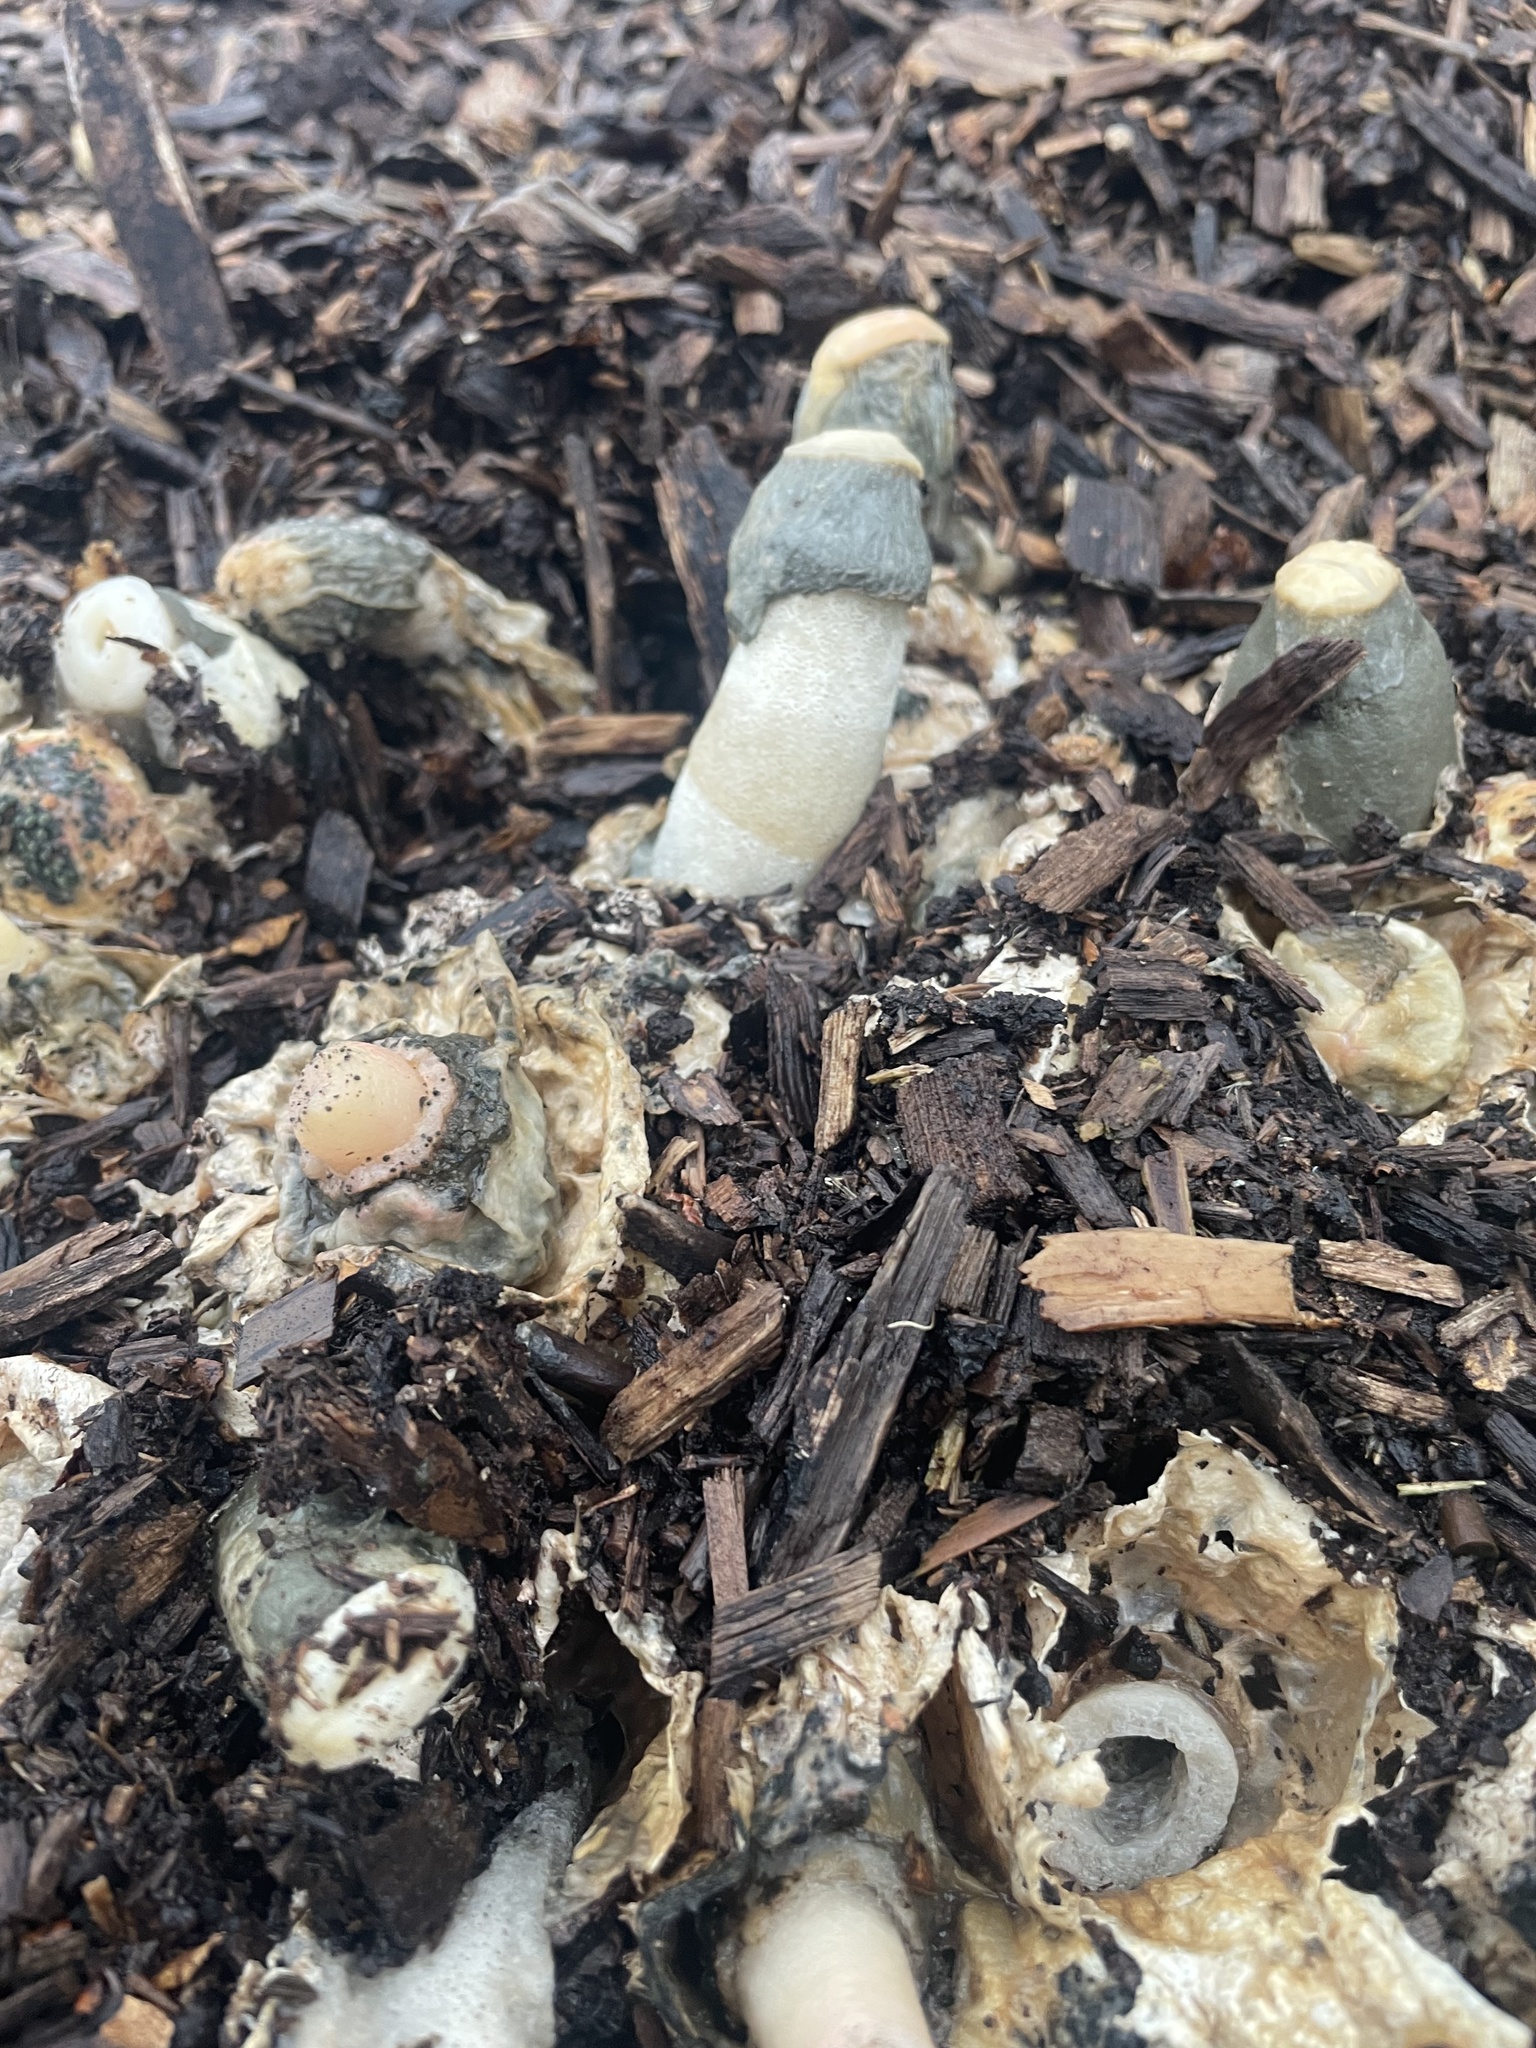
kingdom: Fungi
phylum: Basidiomycota
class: Agaricomycetes
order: Phallales
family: Phallaceae
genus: Phallus
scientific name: Phallus ravenelii
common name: Ravenel's stinkhorn
